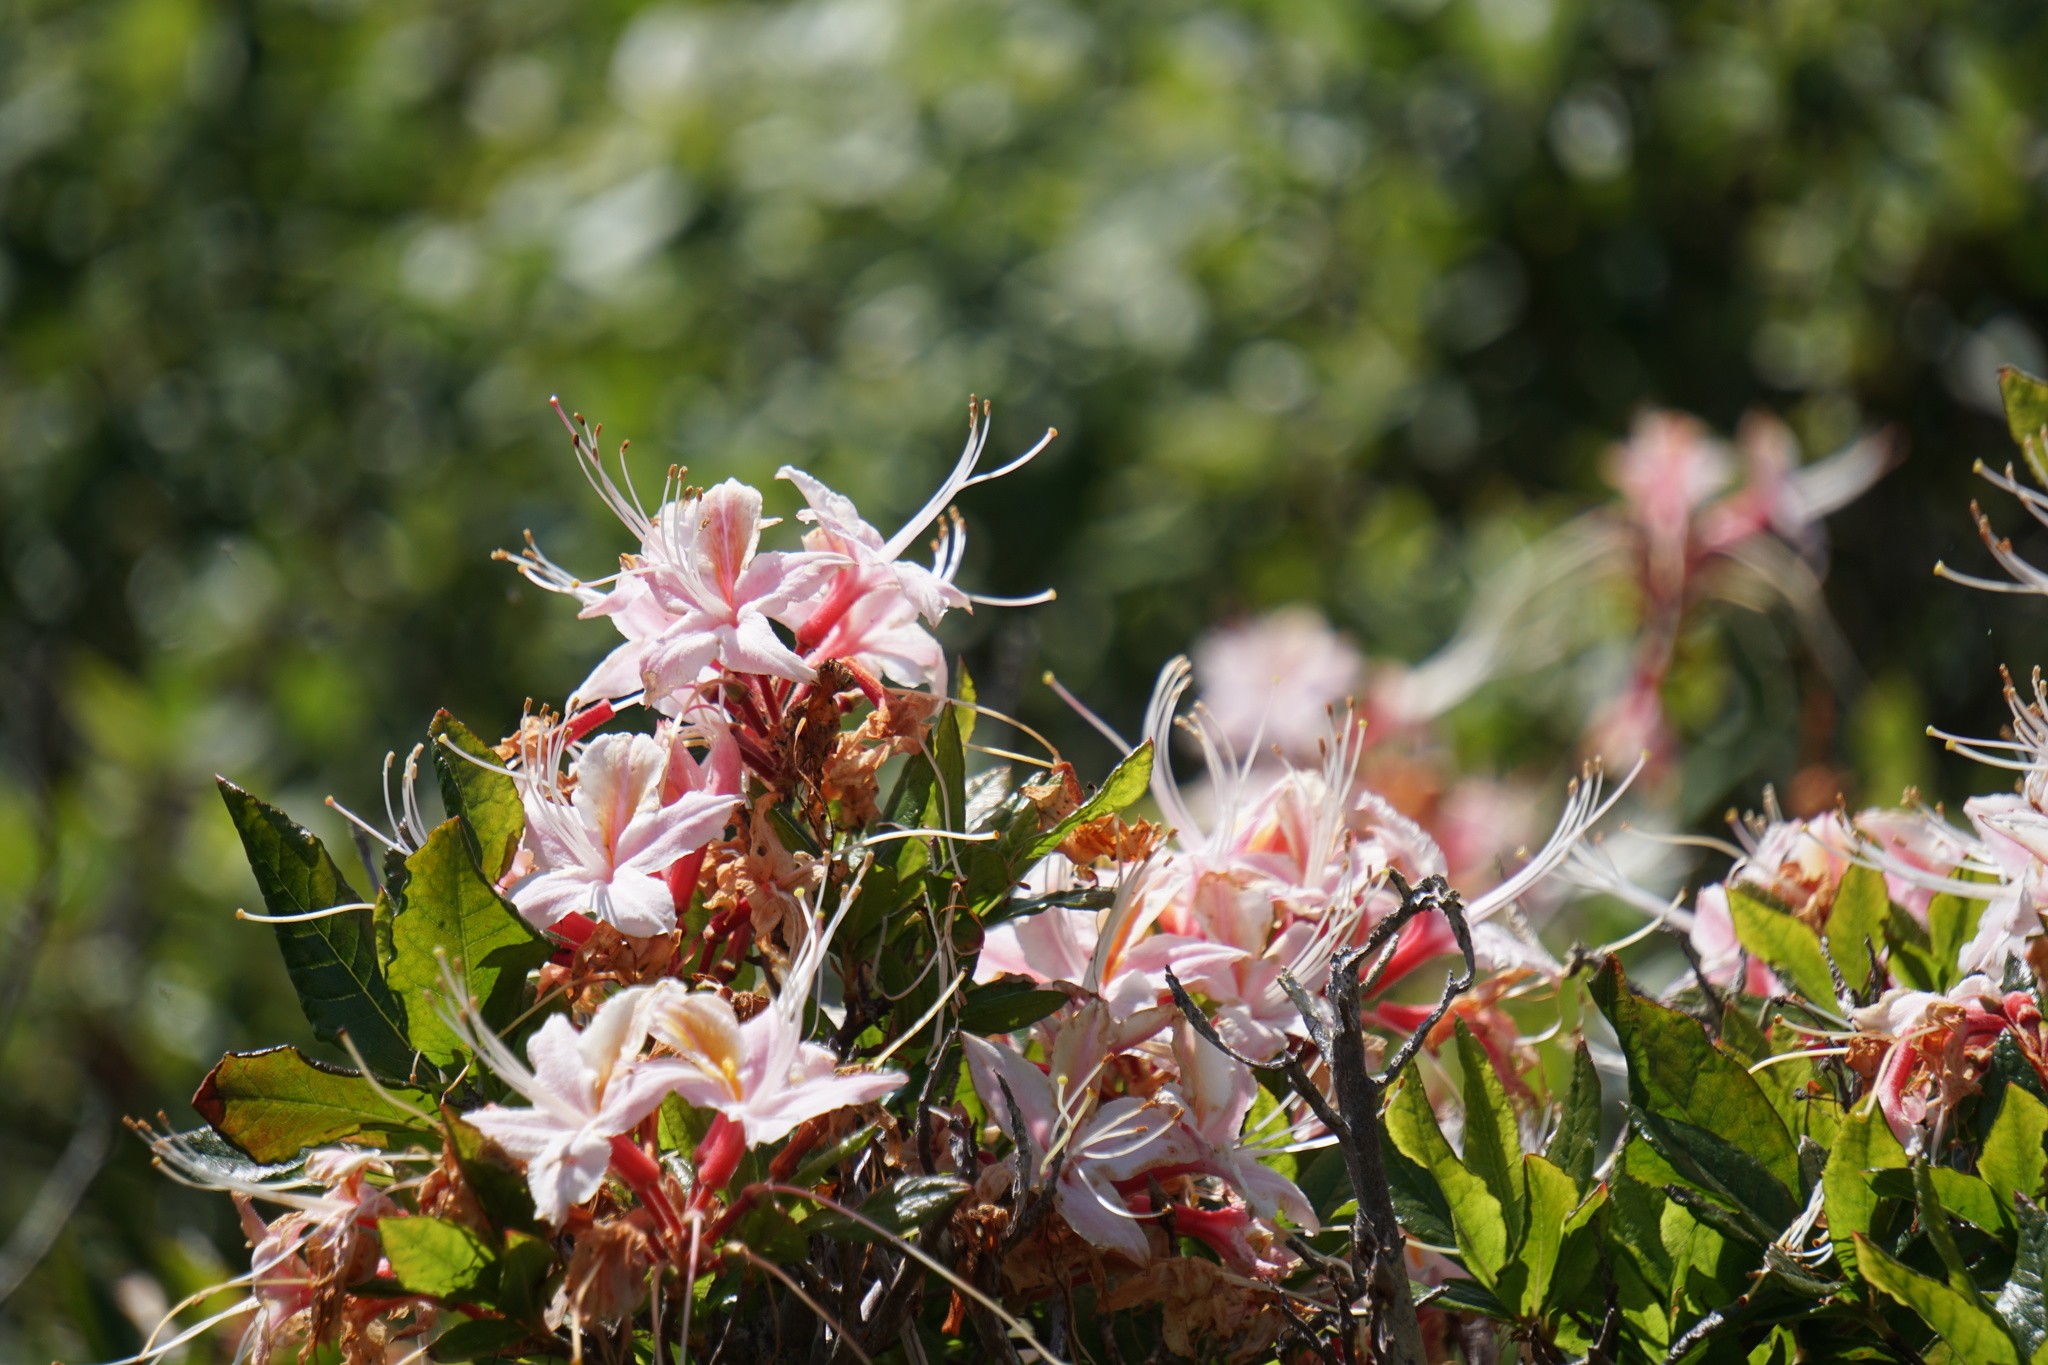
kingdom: Plantae
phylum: Tracheophyta
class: Magnoliopsida
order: Ericales
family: Ericaceae
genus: Rhododendron
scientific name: Rhododendron occidentale
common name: Western azalea
